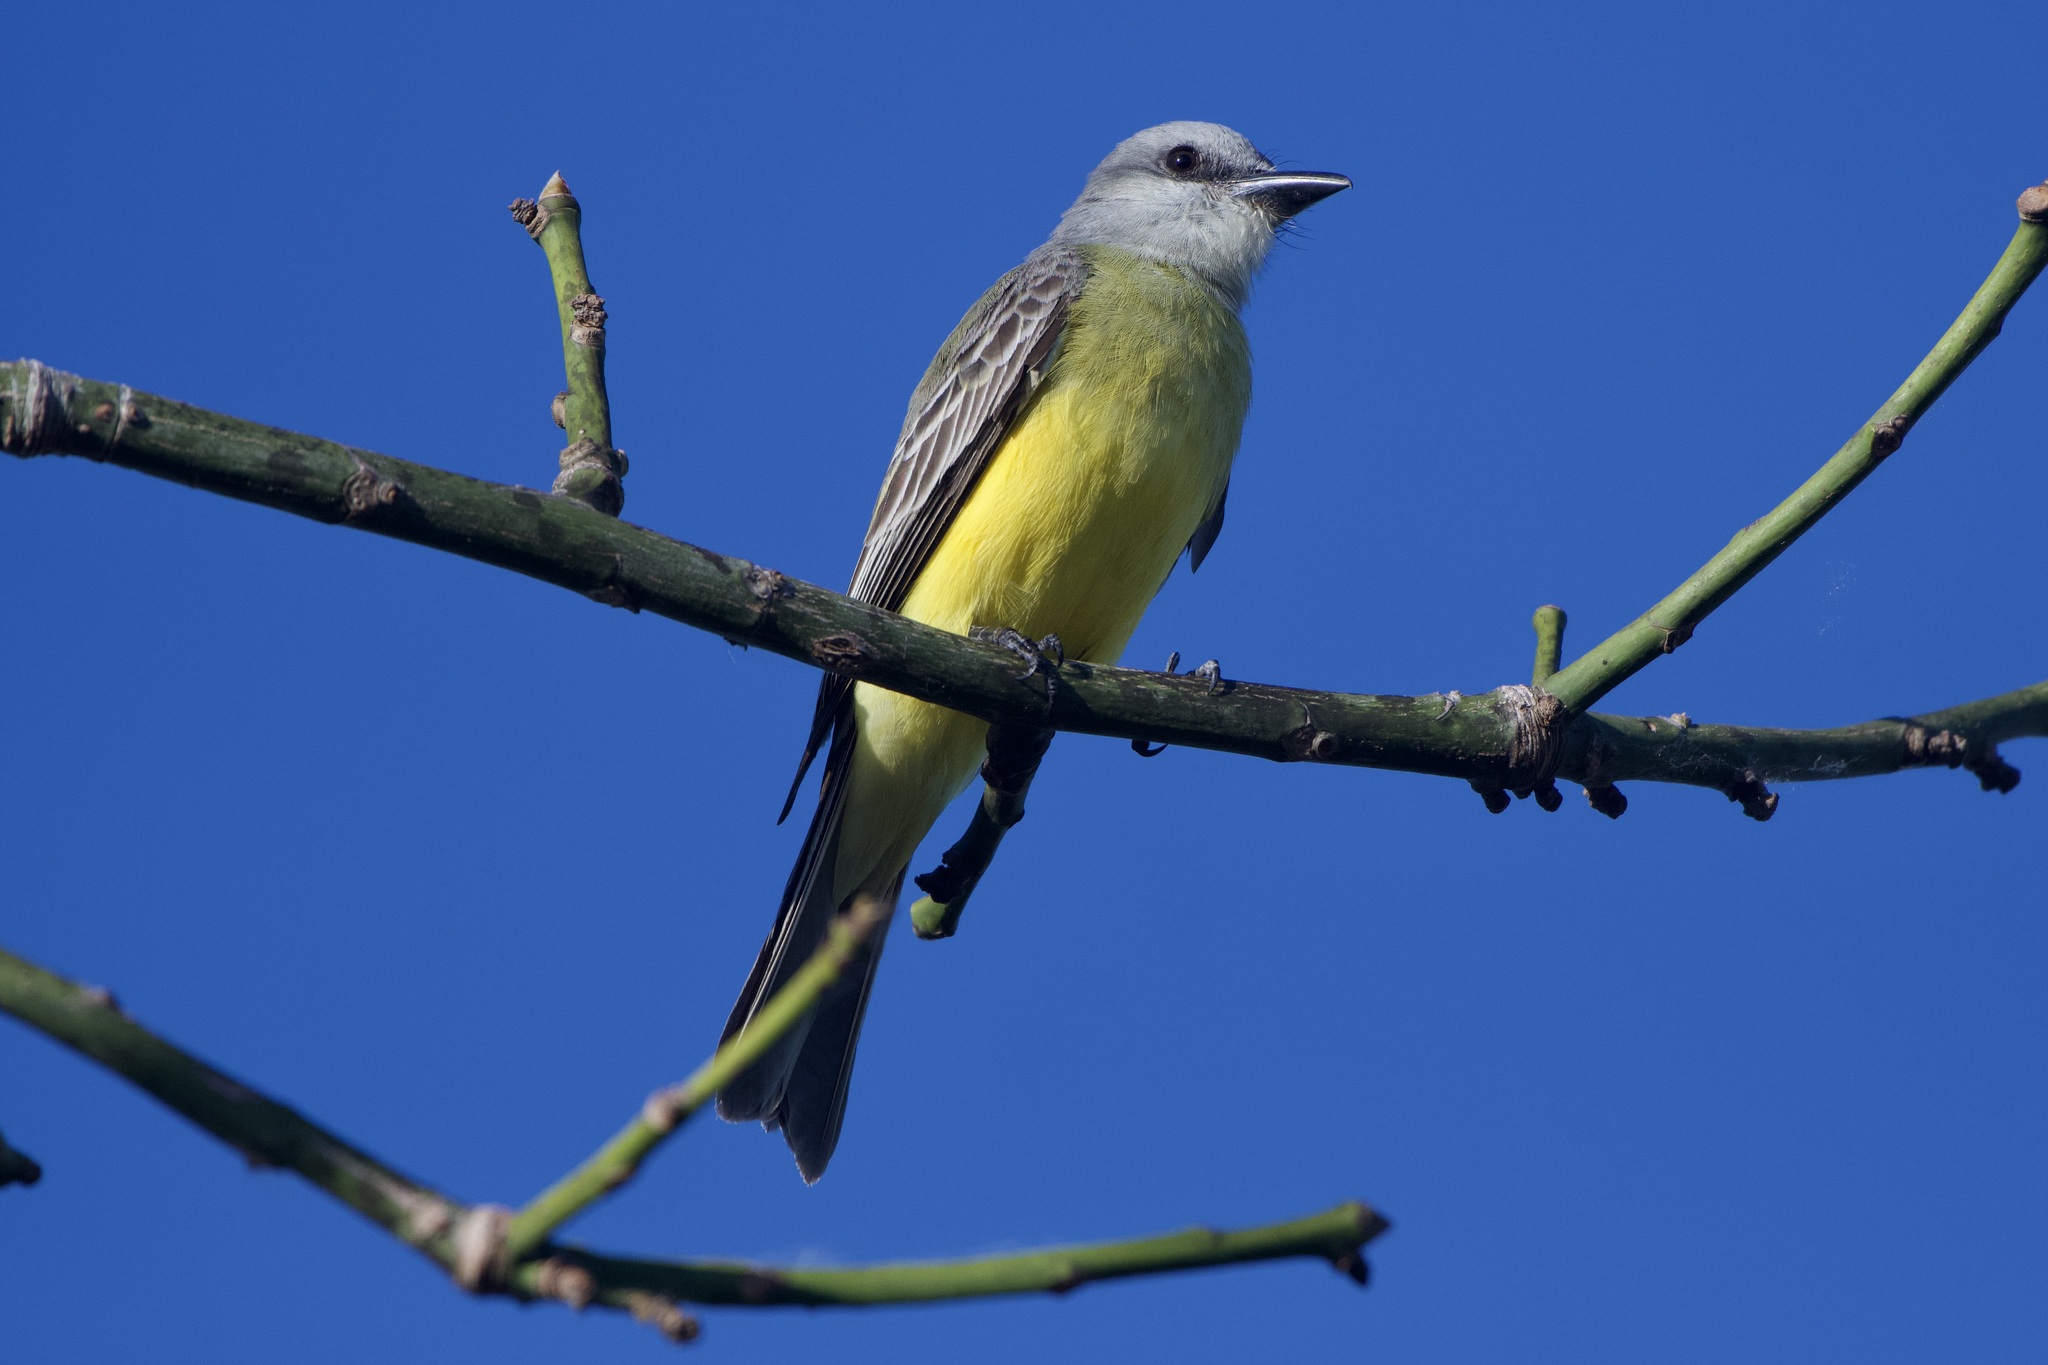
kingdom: Animalia
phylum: Chordata
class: Aves
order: Passeriformes
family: Tyrannidae
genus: Tyrannus
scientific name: Tyrannus melancholicus
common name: Tropical kingbird
